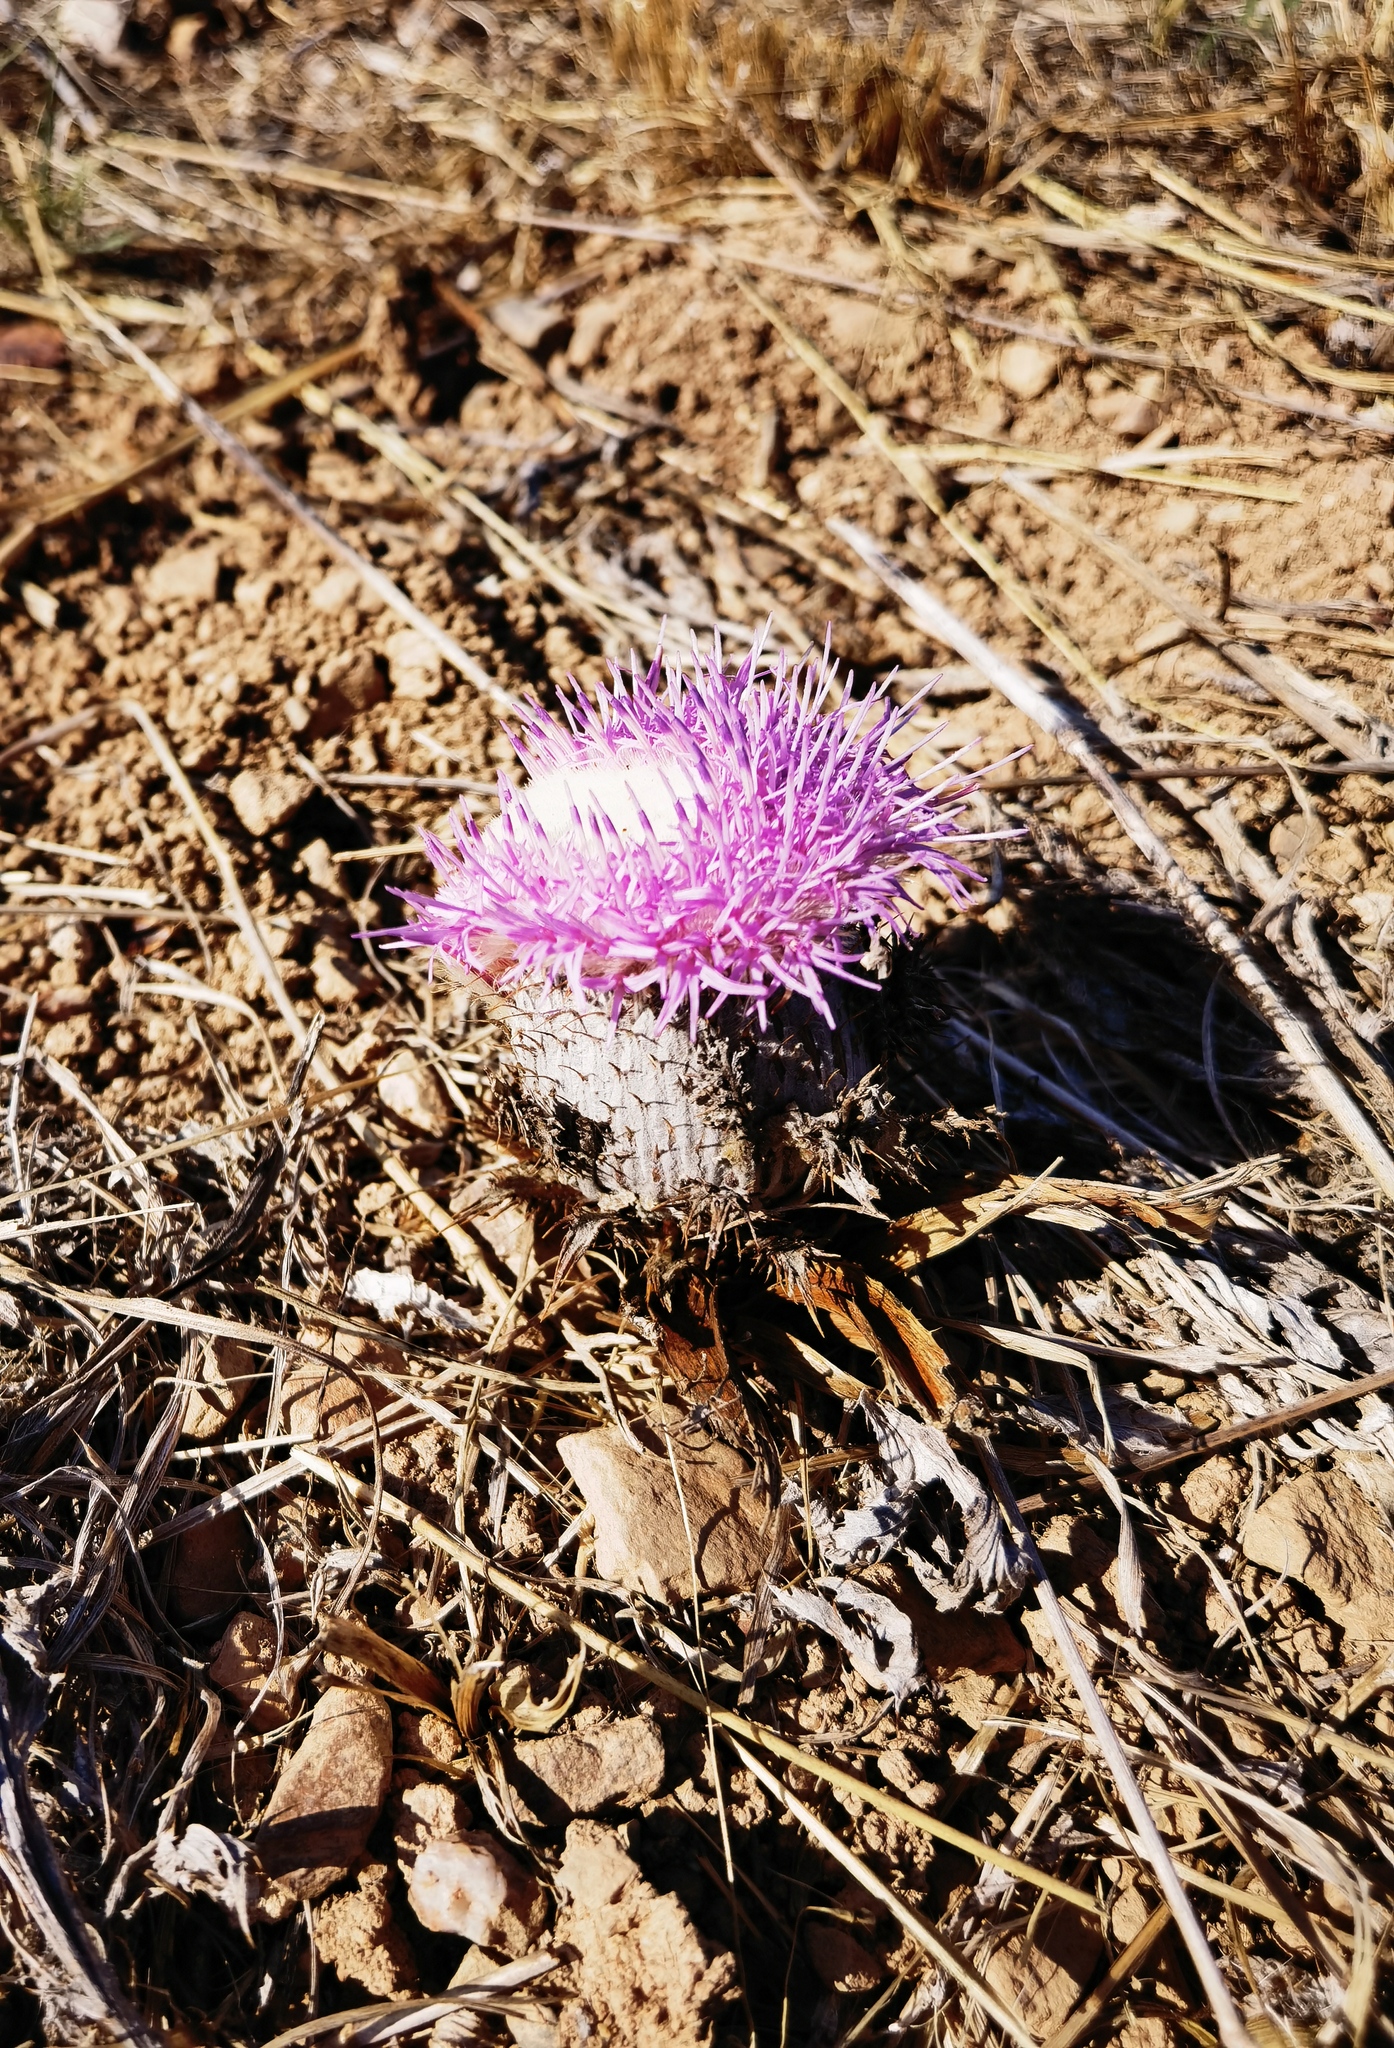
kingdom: Plantae
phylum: Tracheophyta
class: Magnoliopsida
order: Asterales
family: Asteraceae
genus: Chamaeleon
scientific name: Chamaeleon gummifer
